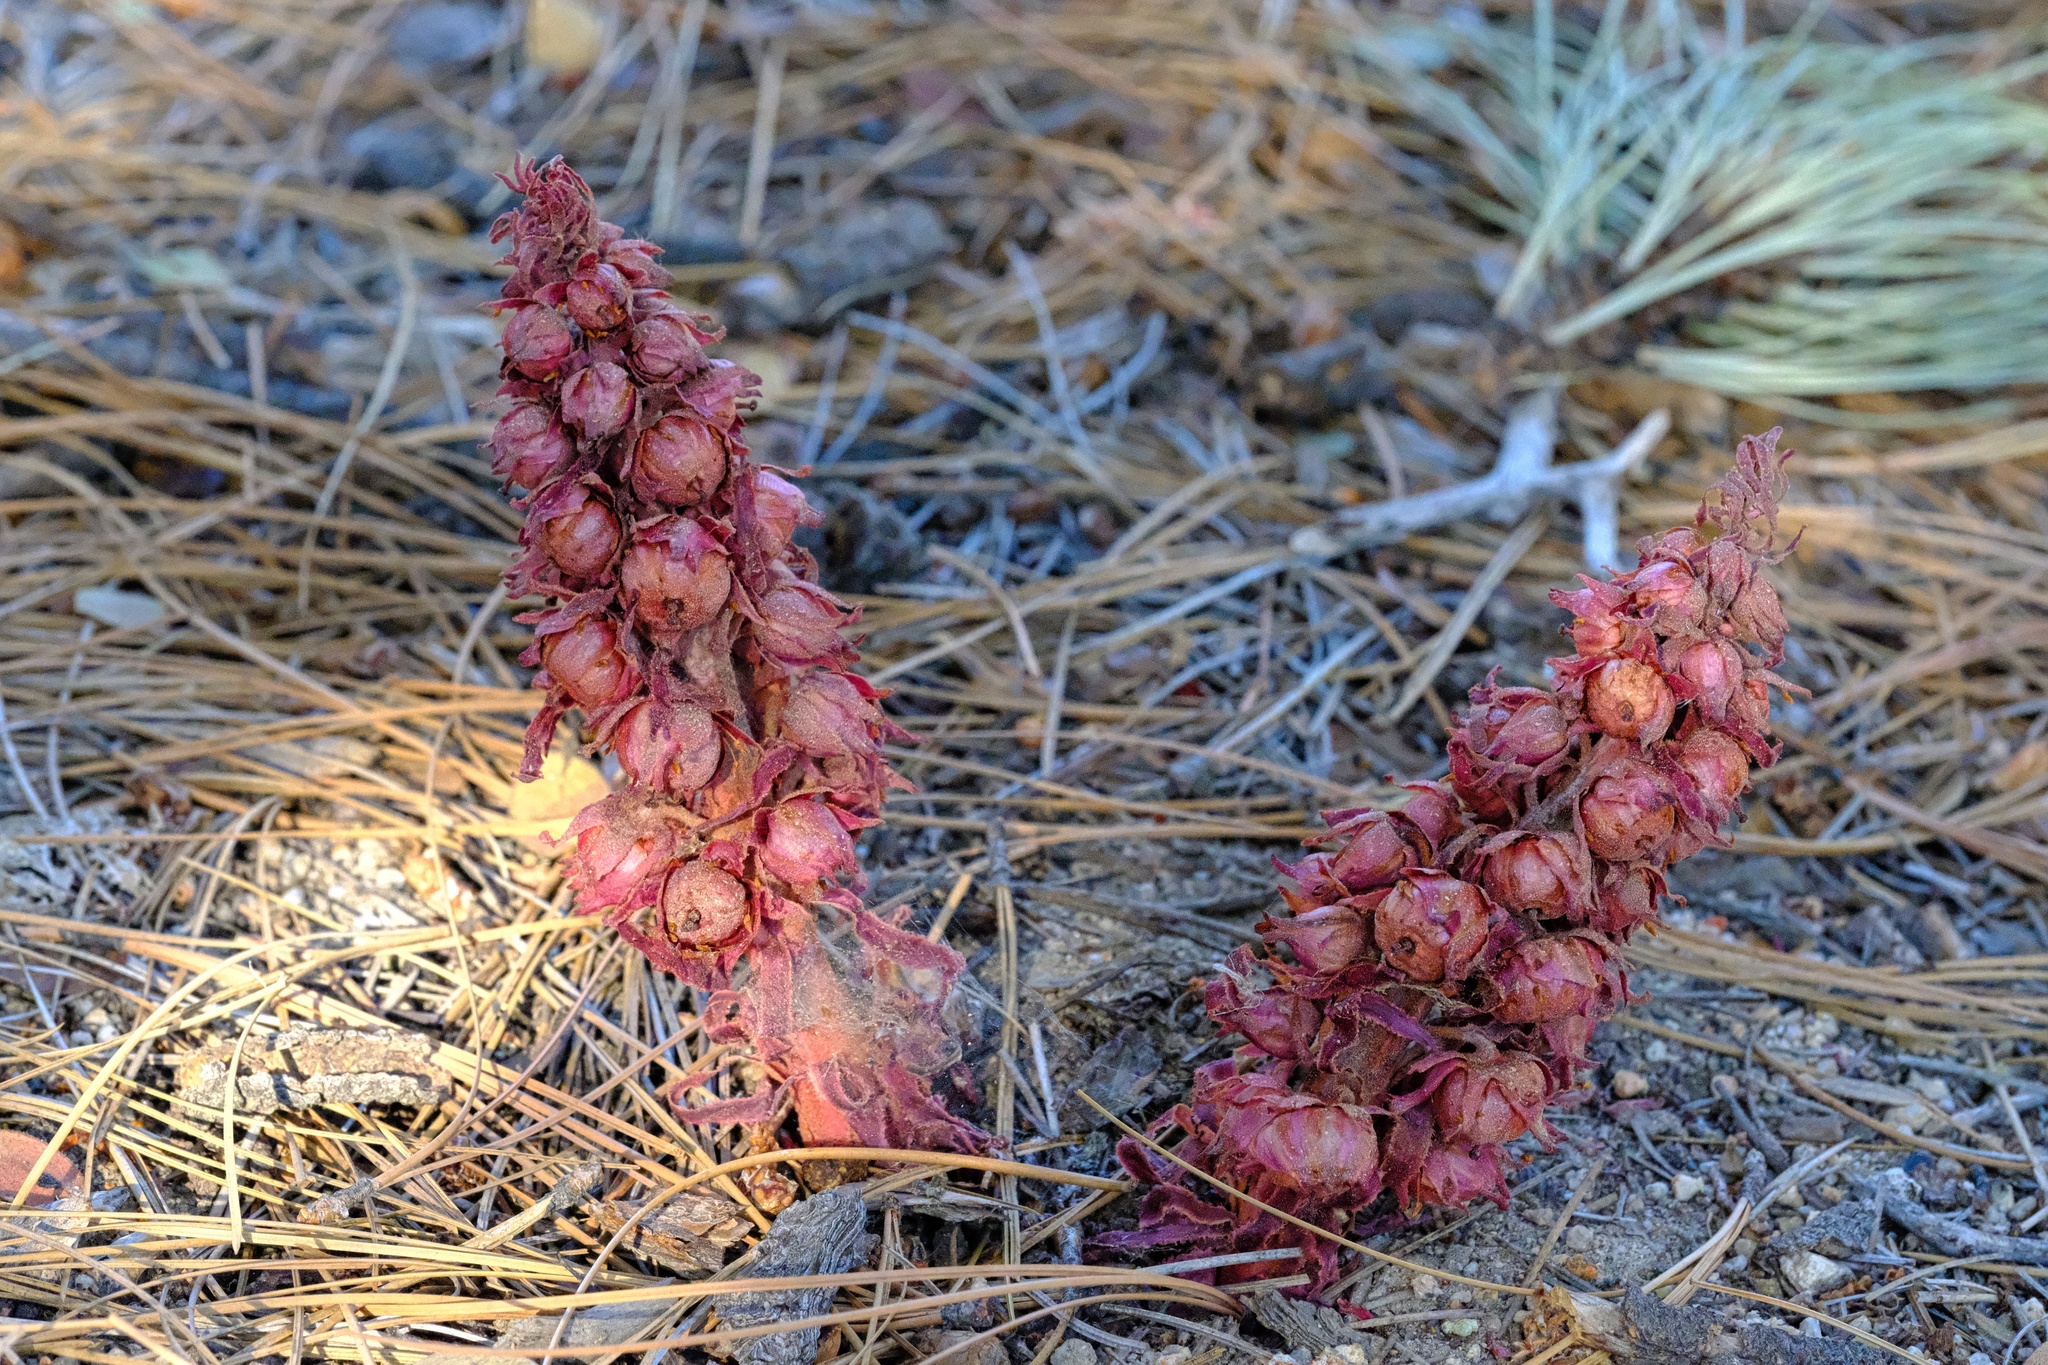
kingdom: Plantae
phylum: Tracheophyta
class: Magnoliopsida
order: Ericales
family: Ericaceae
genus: Sarcodes
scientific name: Sarcodes sanguinea
